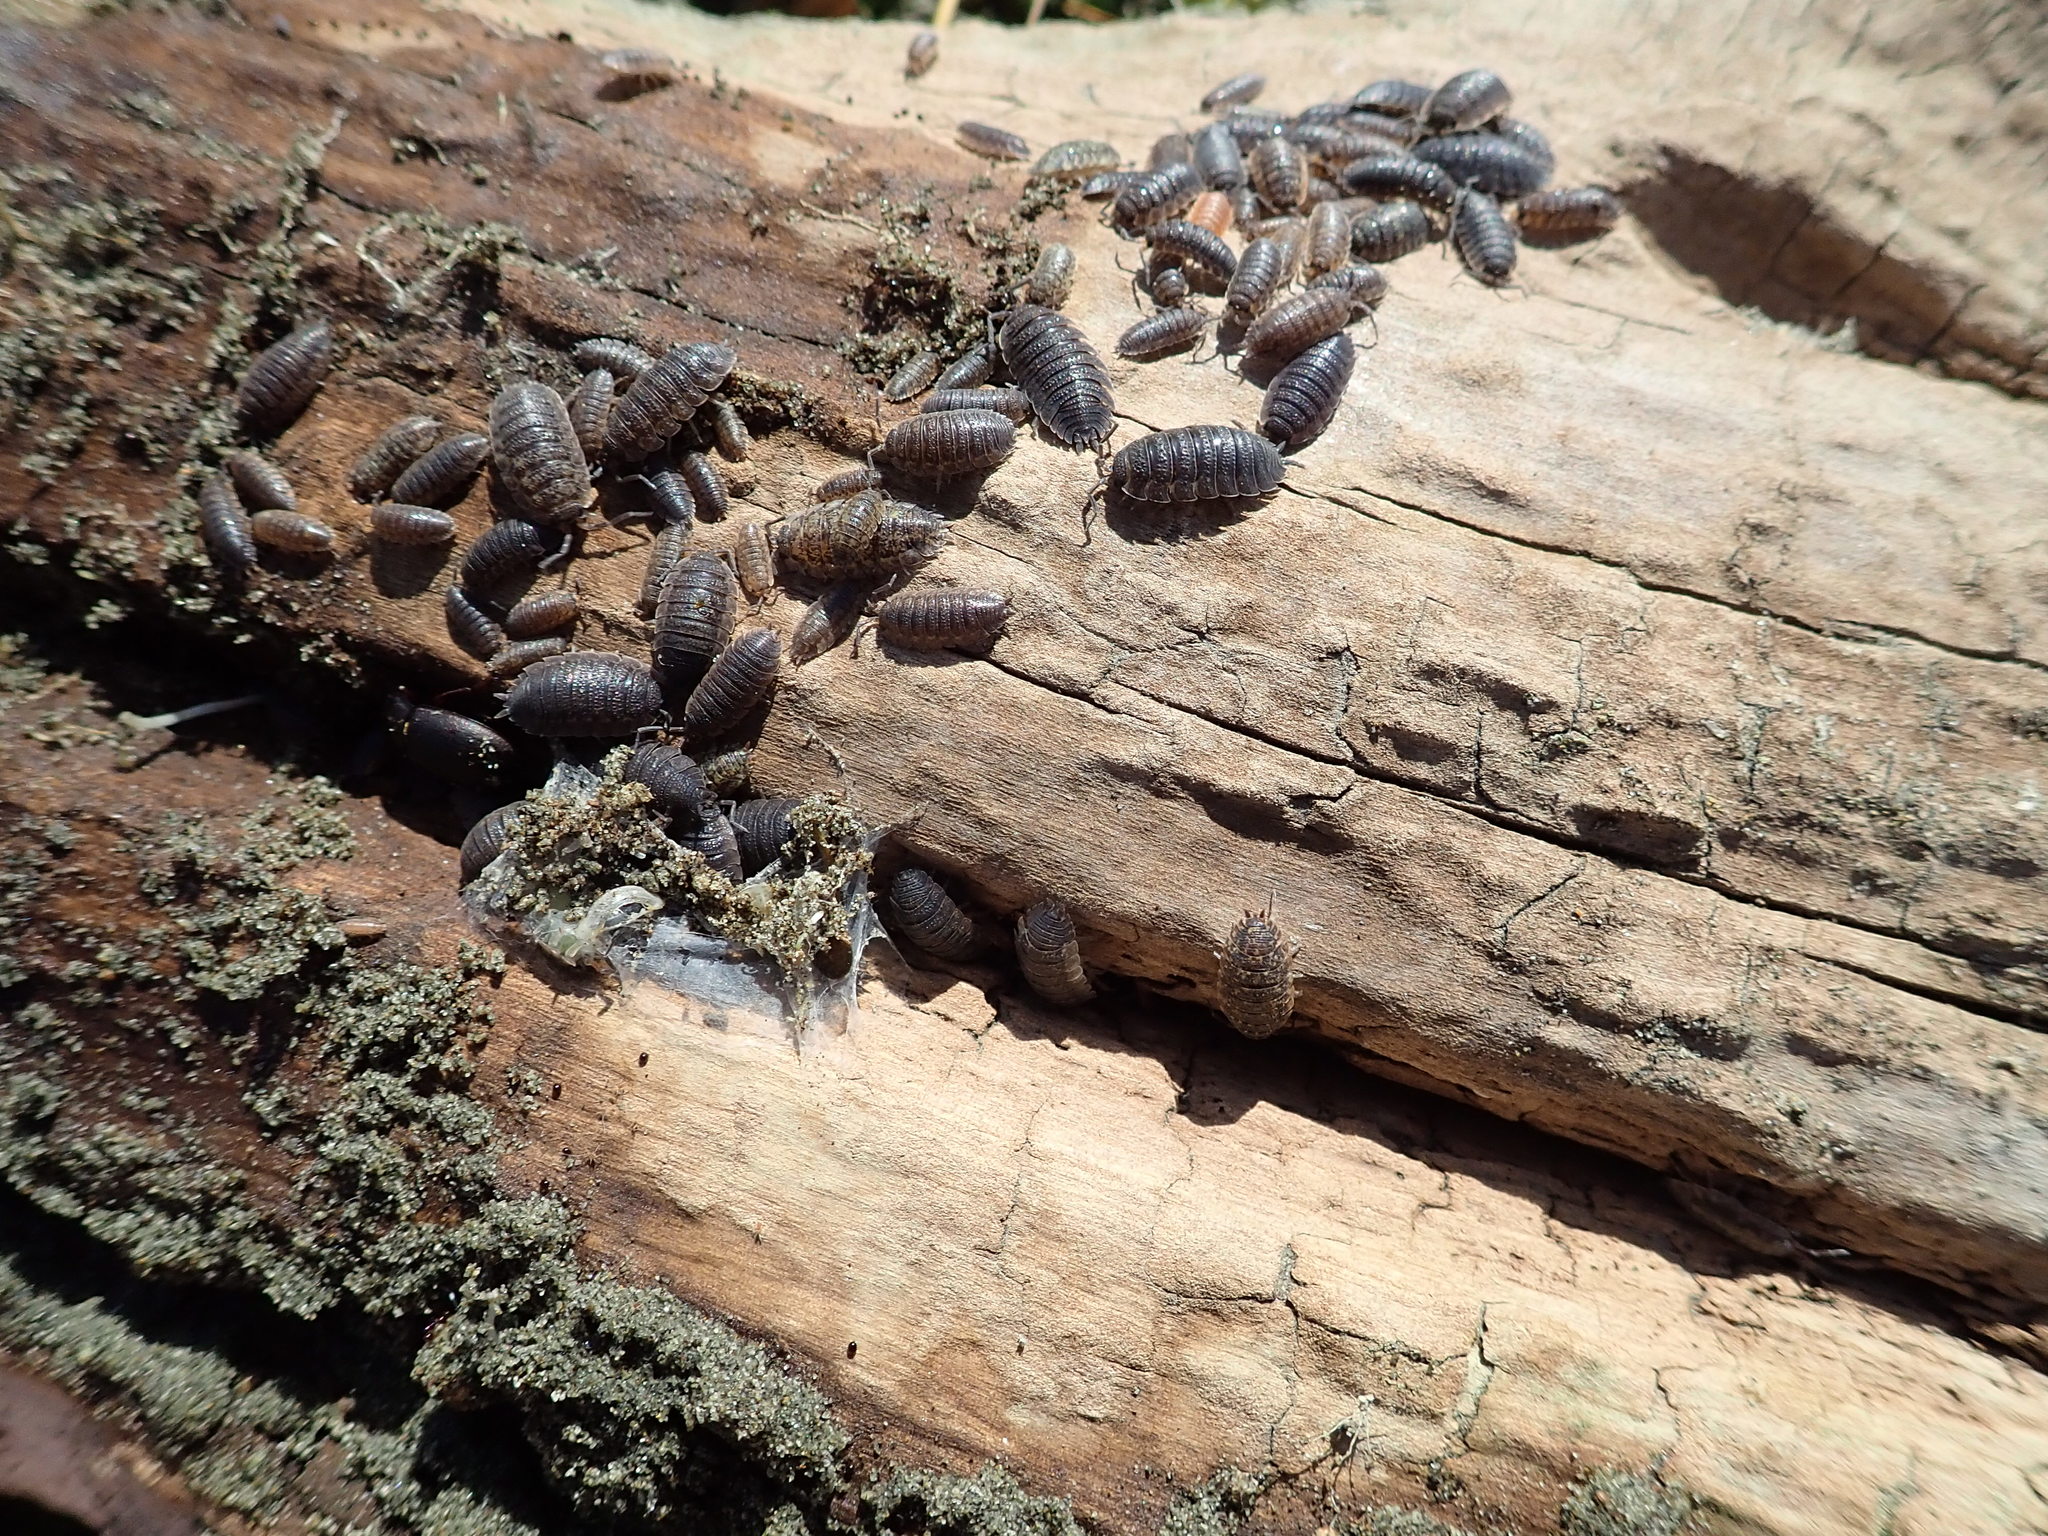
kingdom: Animalia
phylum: Arthropoda
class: Malacostraca
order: Isopoda
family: Porcellionidae
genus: Porcellio
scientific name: Porcellio scaber
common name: Common rough woodlouse
